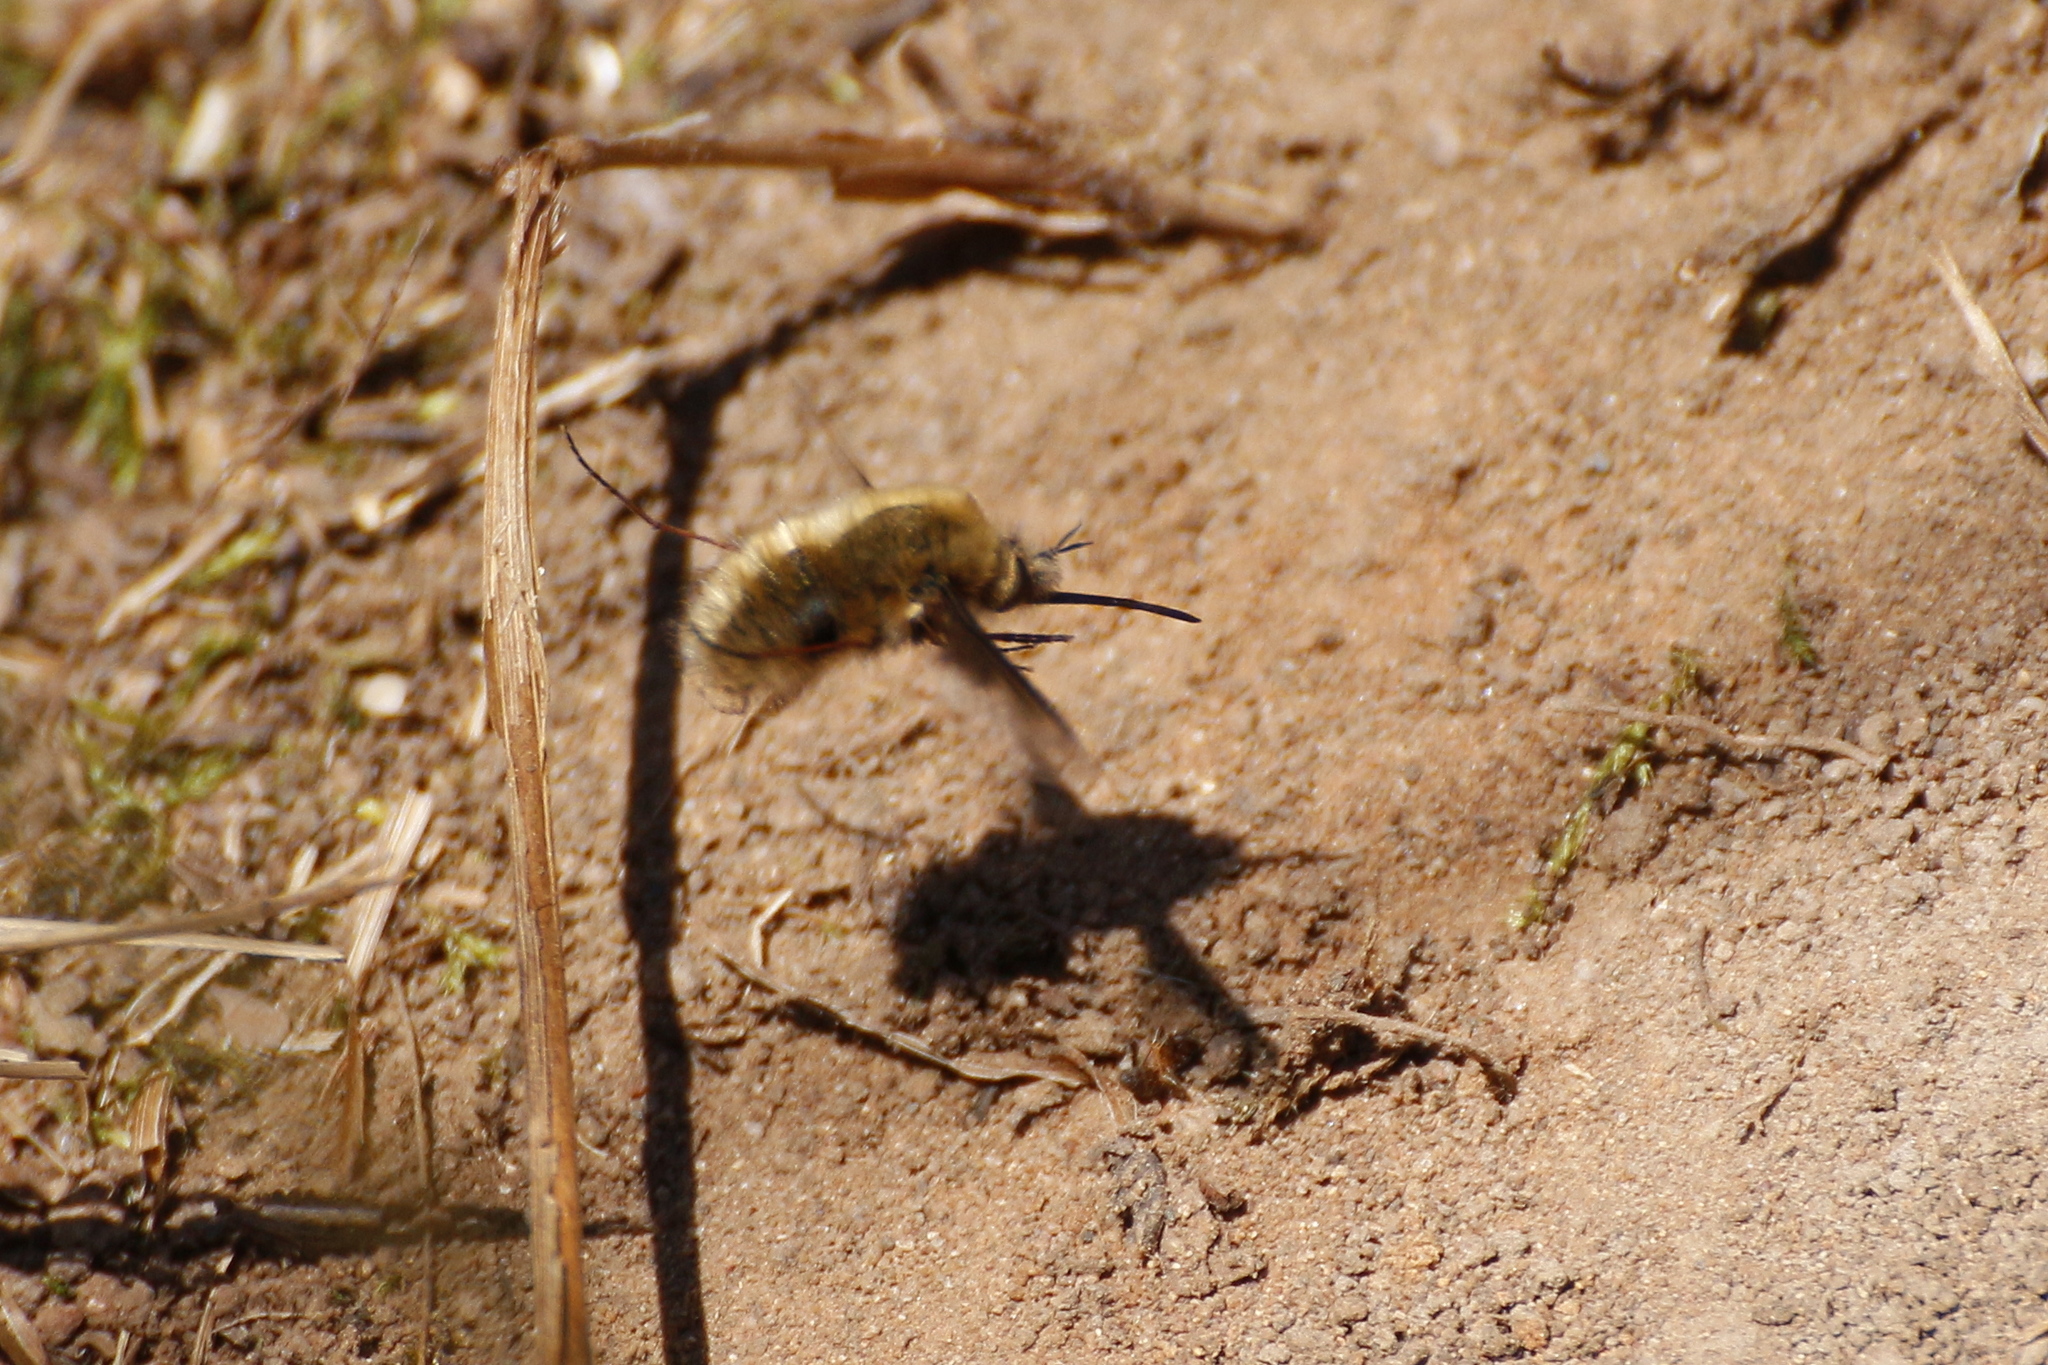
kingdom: Animalia
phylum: Arthropoda
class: Insecta
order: Diptera
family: Bombyliidae
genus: Bombylius
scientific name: Bombylius major
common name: Bee fly
